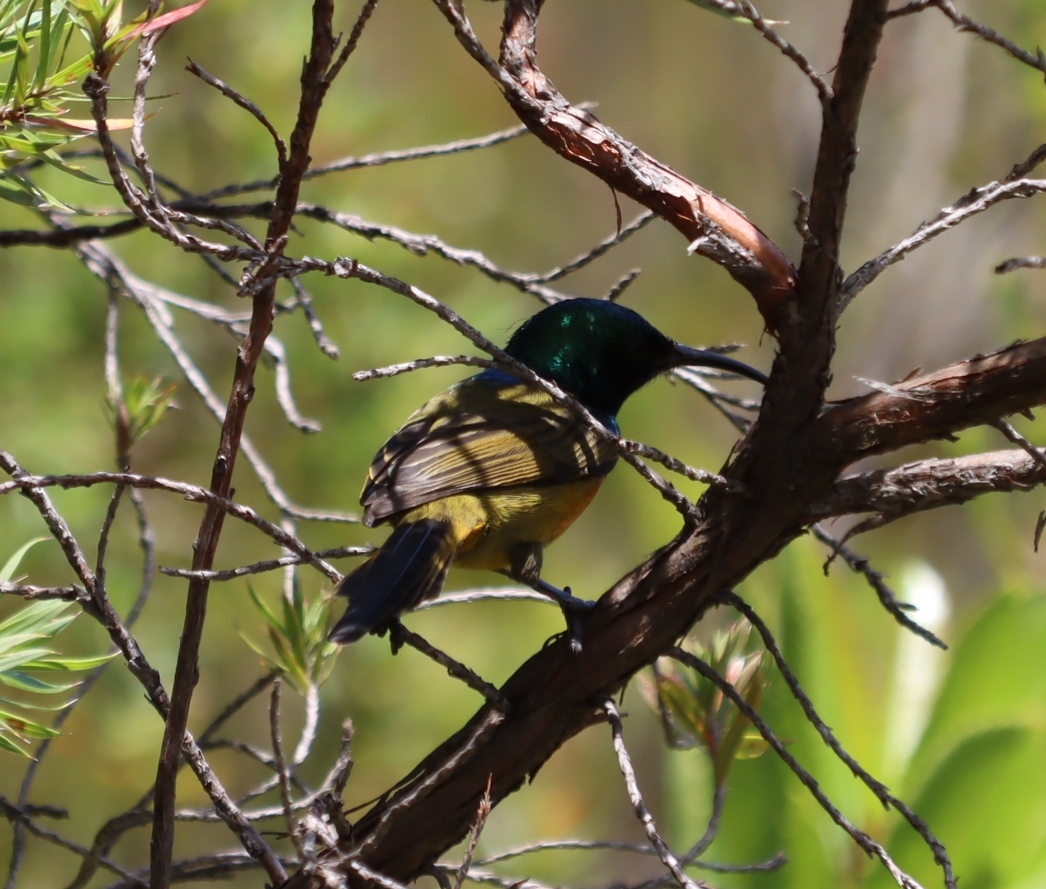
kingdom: Animalia
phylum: Chordata
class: Aves
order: Passeriformes
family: Nectariniidae
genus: Anthobaphes
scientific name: Anthobaphes violacea
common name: Orange-breasted sunbird
